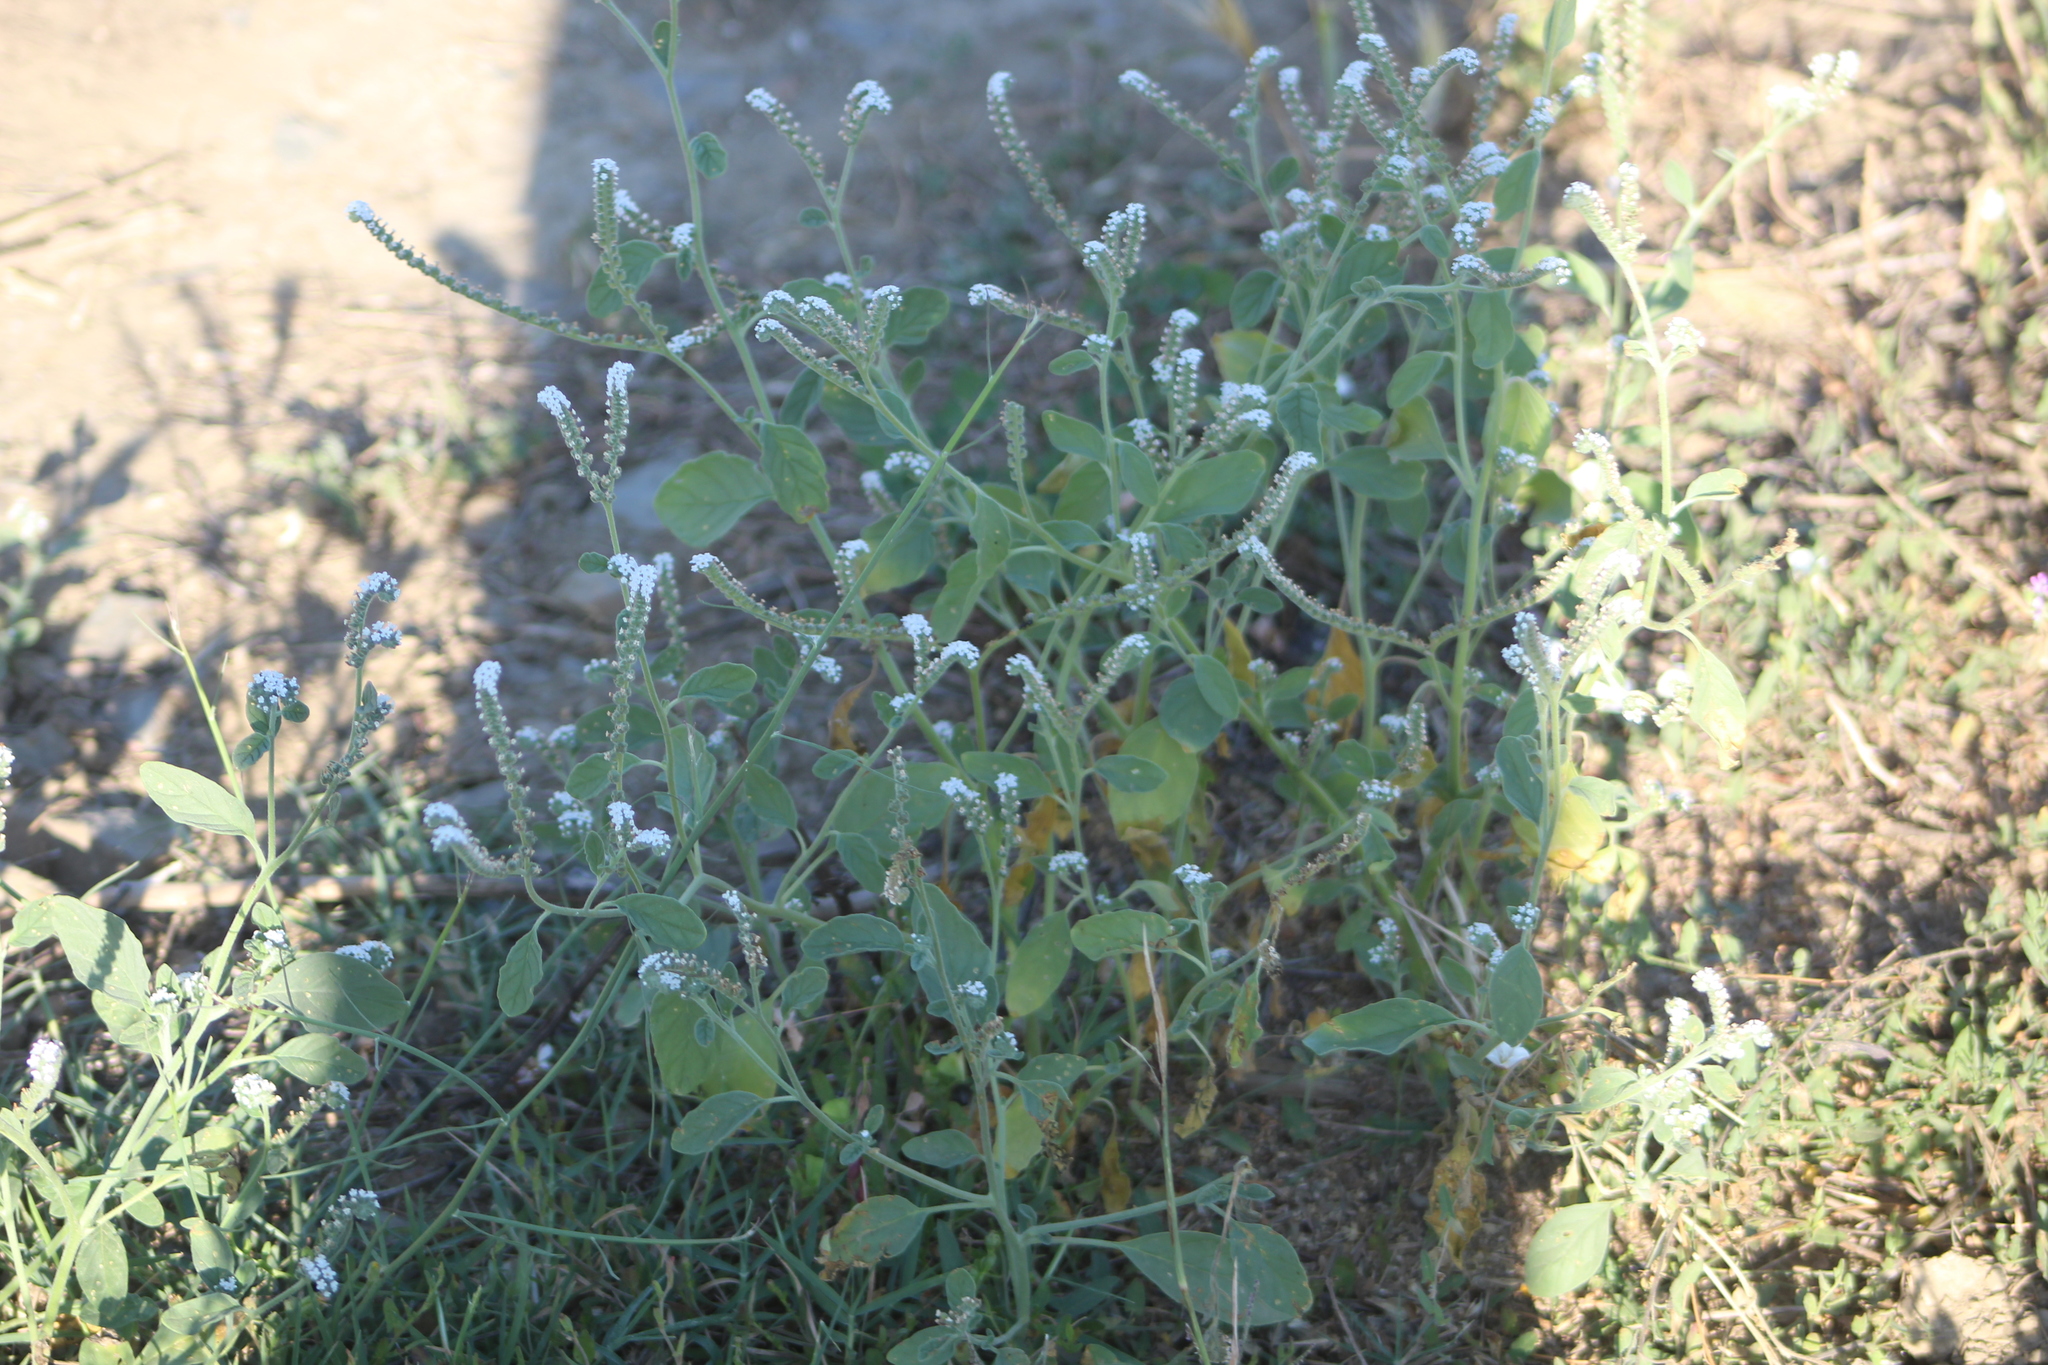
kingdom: Plantae
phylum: Tracheophyta
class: Magnoliopsida
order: Boraginales
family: Heliotropiaceae
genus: Heliotropium
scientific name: Heliotropium europaeum
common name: European heliotrope
